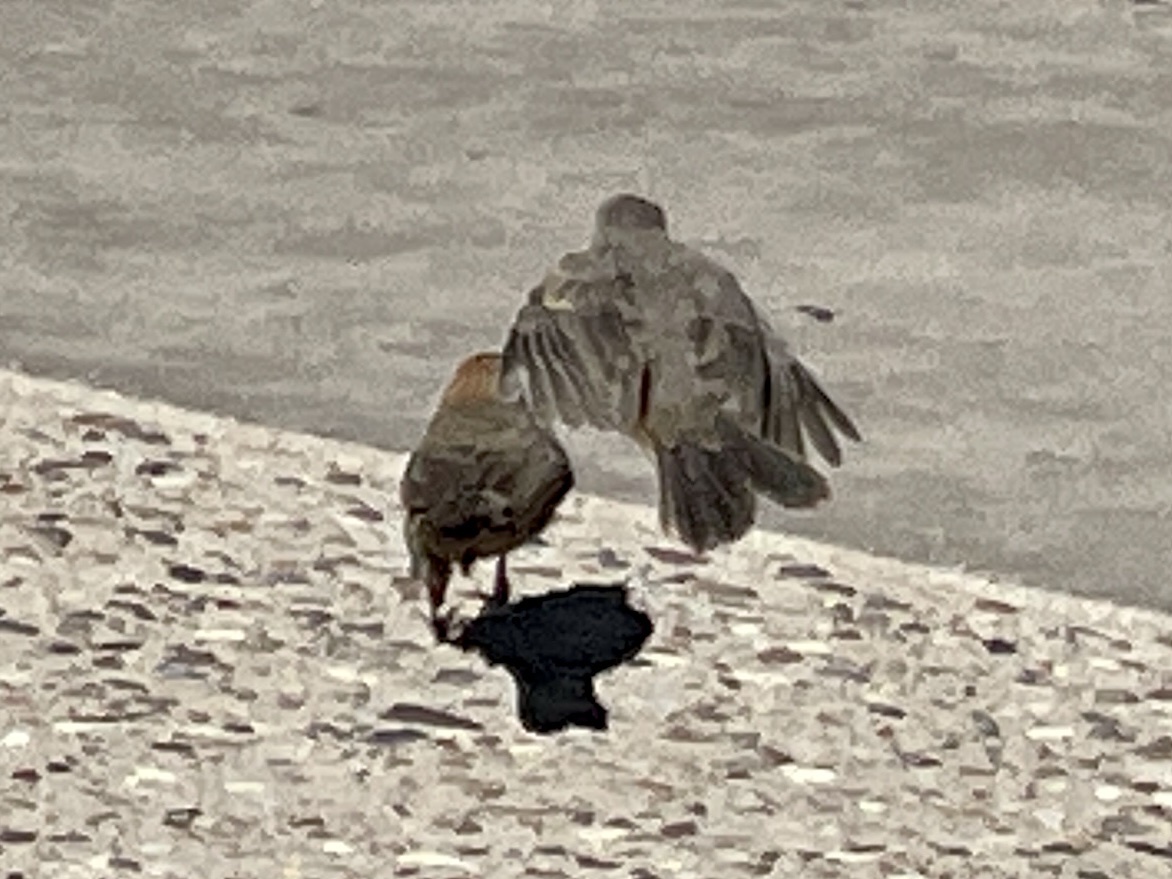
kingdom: Animalia
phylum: Chordata
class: Aves
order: Passeriformes
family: Passerellidae
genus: Melozone
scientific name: Melozone fusca
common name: Canyon towhee
